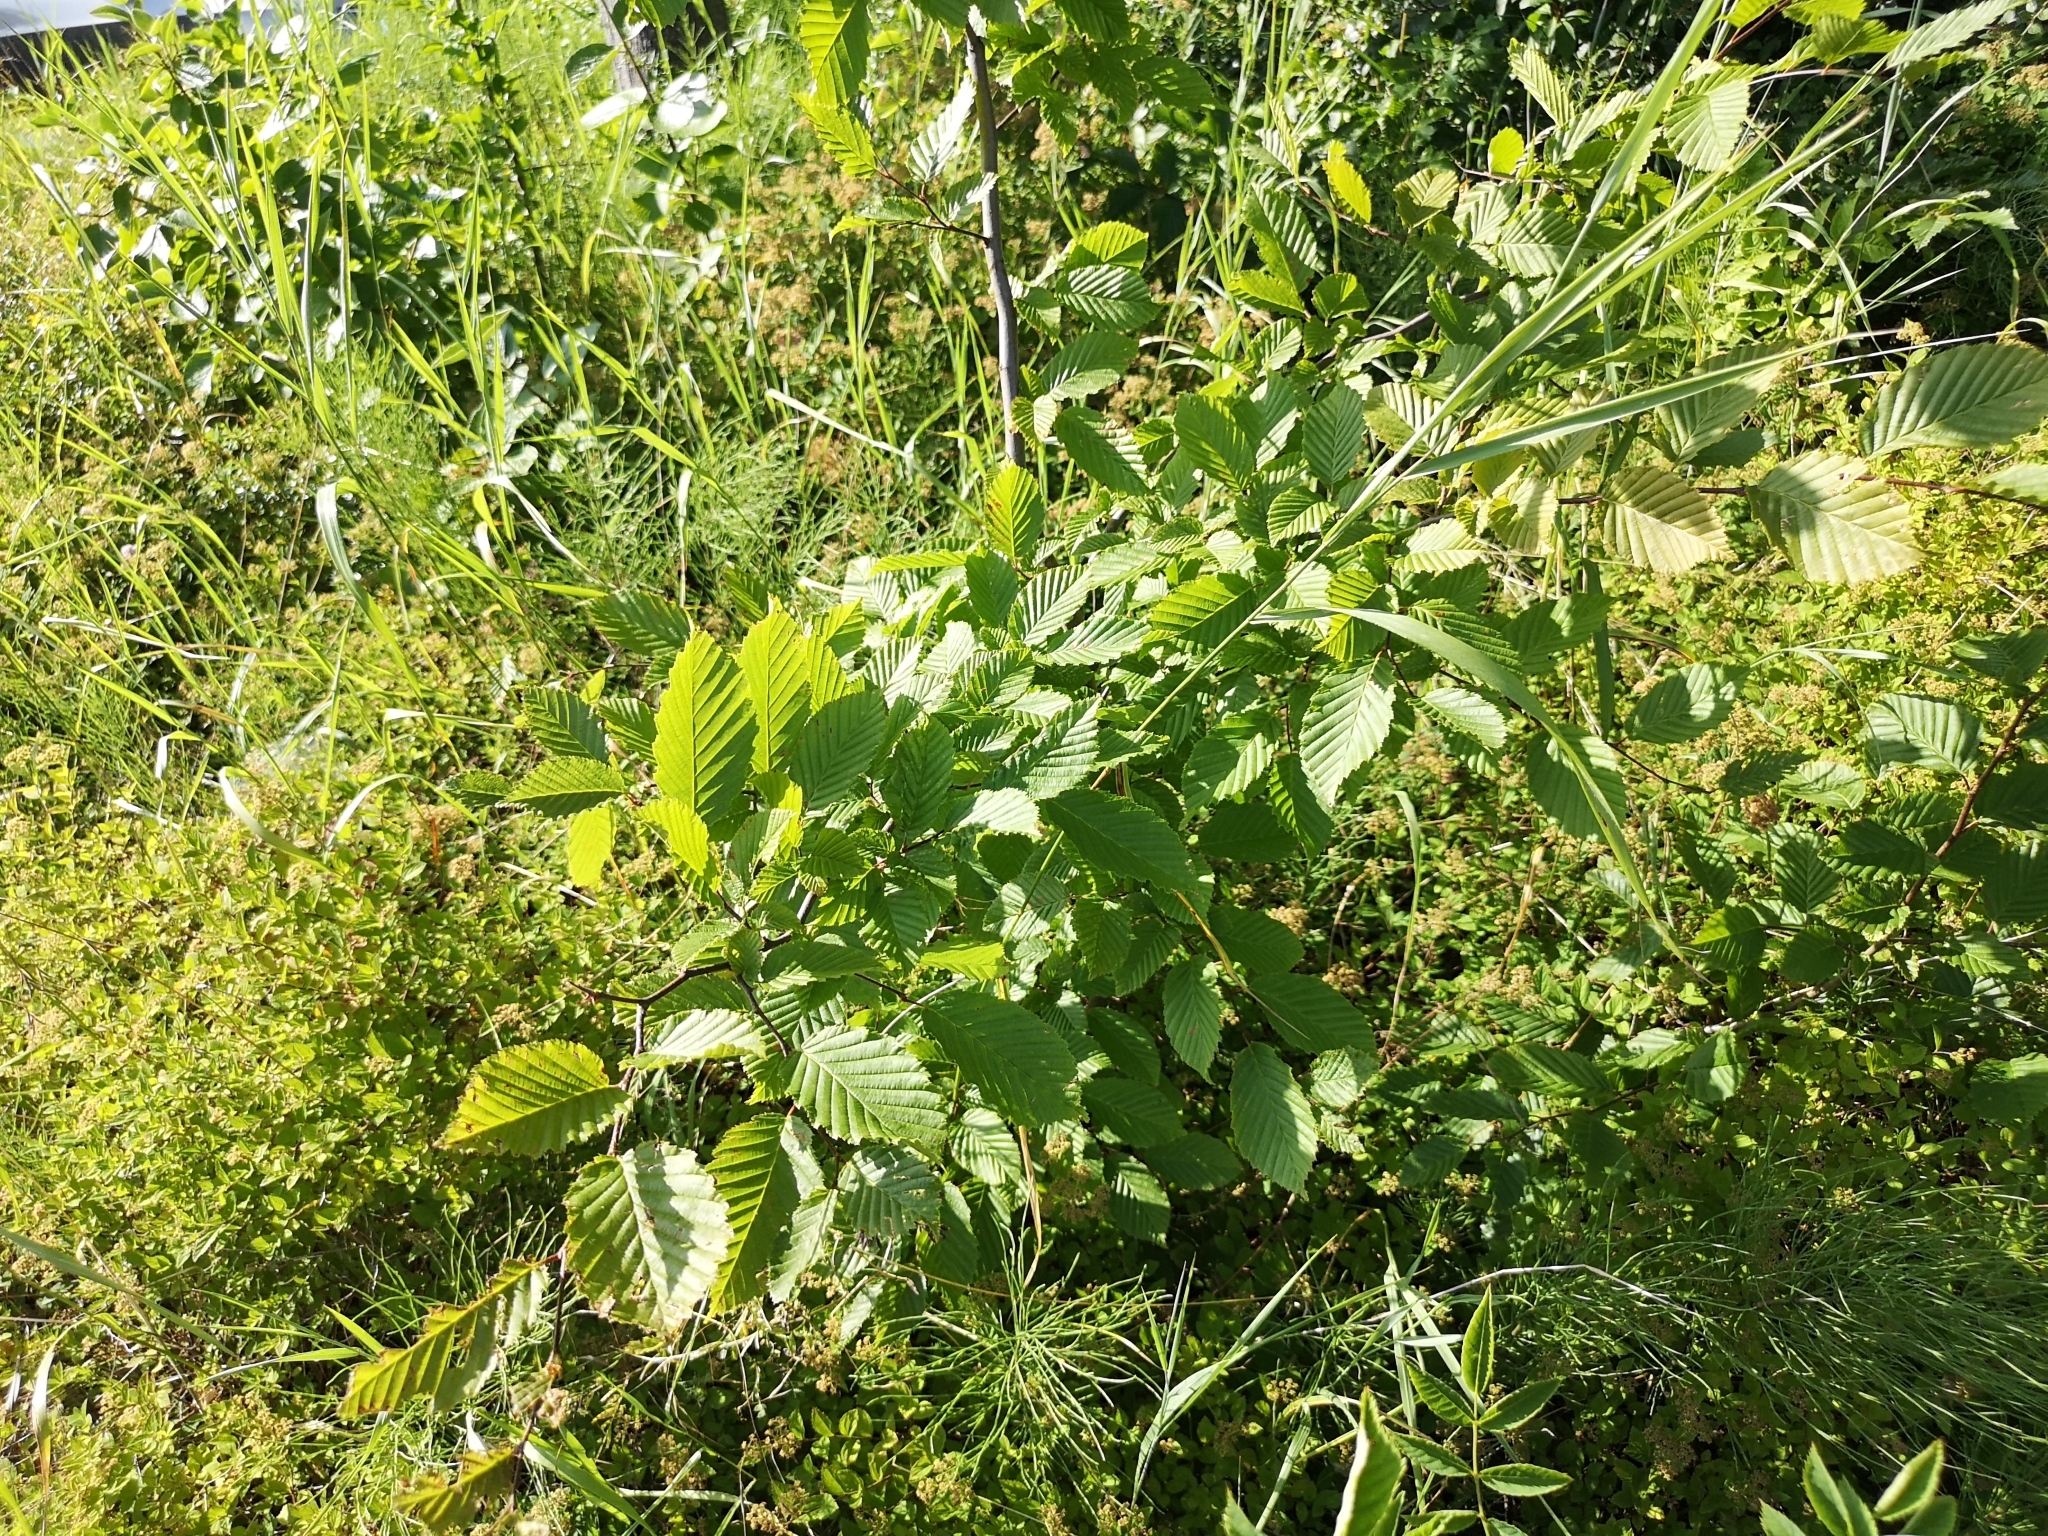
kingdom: Plantae
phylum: Tracheophyta
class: Magnoliopsida
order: Fagales
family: Betulaceae
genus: Carpinus
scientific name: Carpinus betulus
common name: Hornbeam
